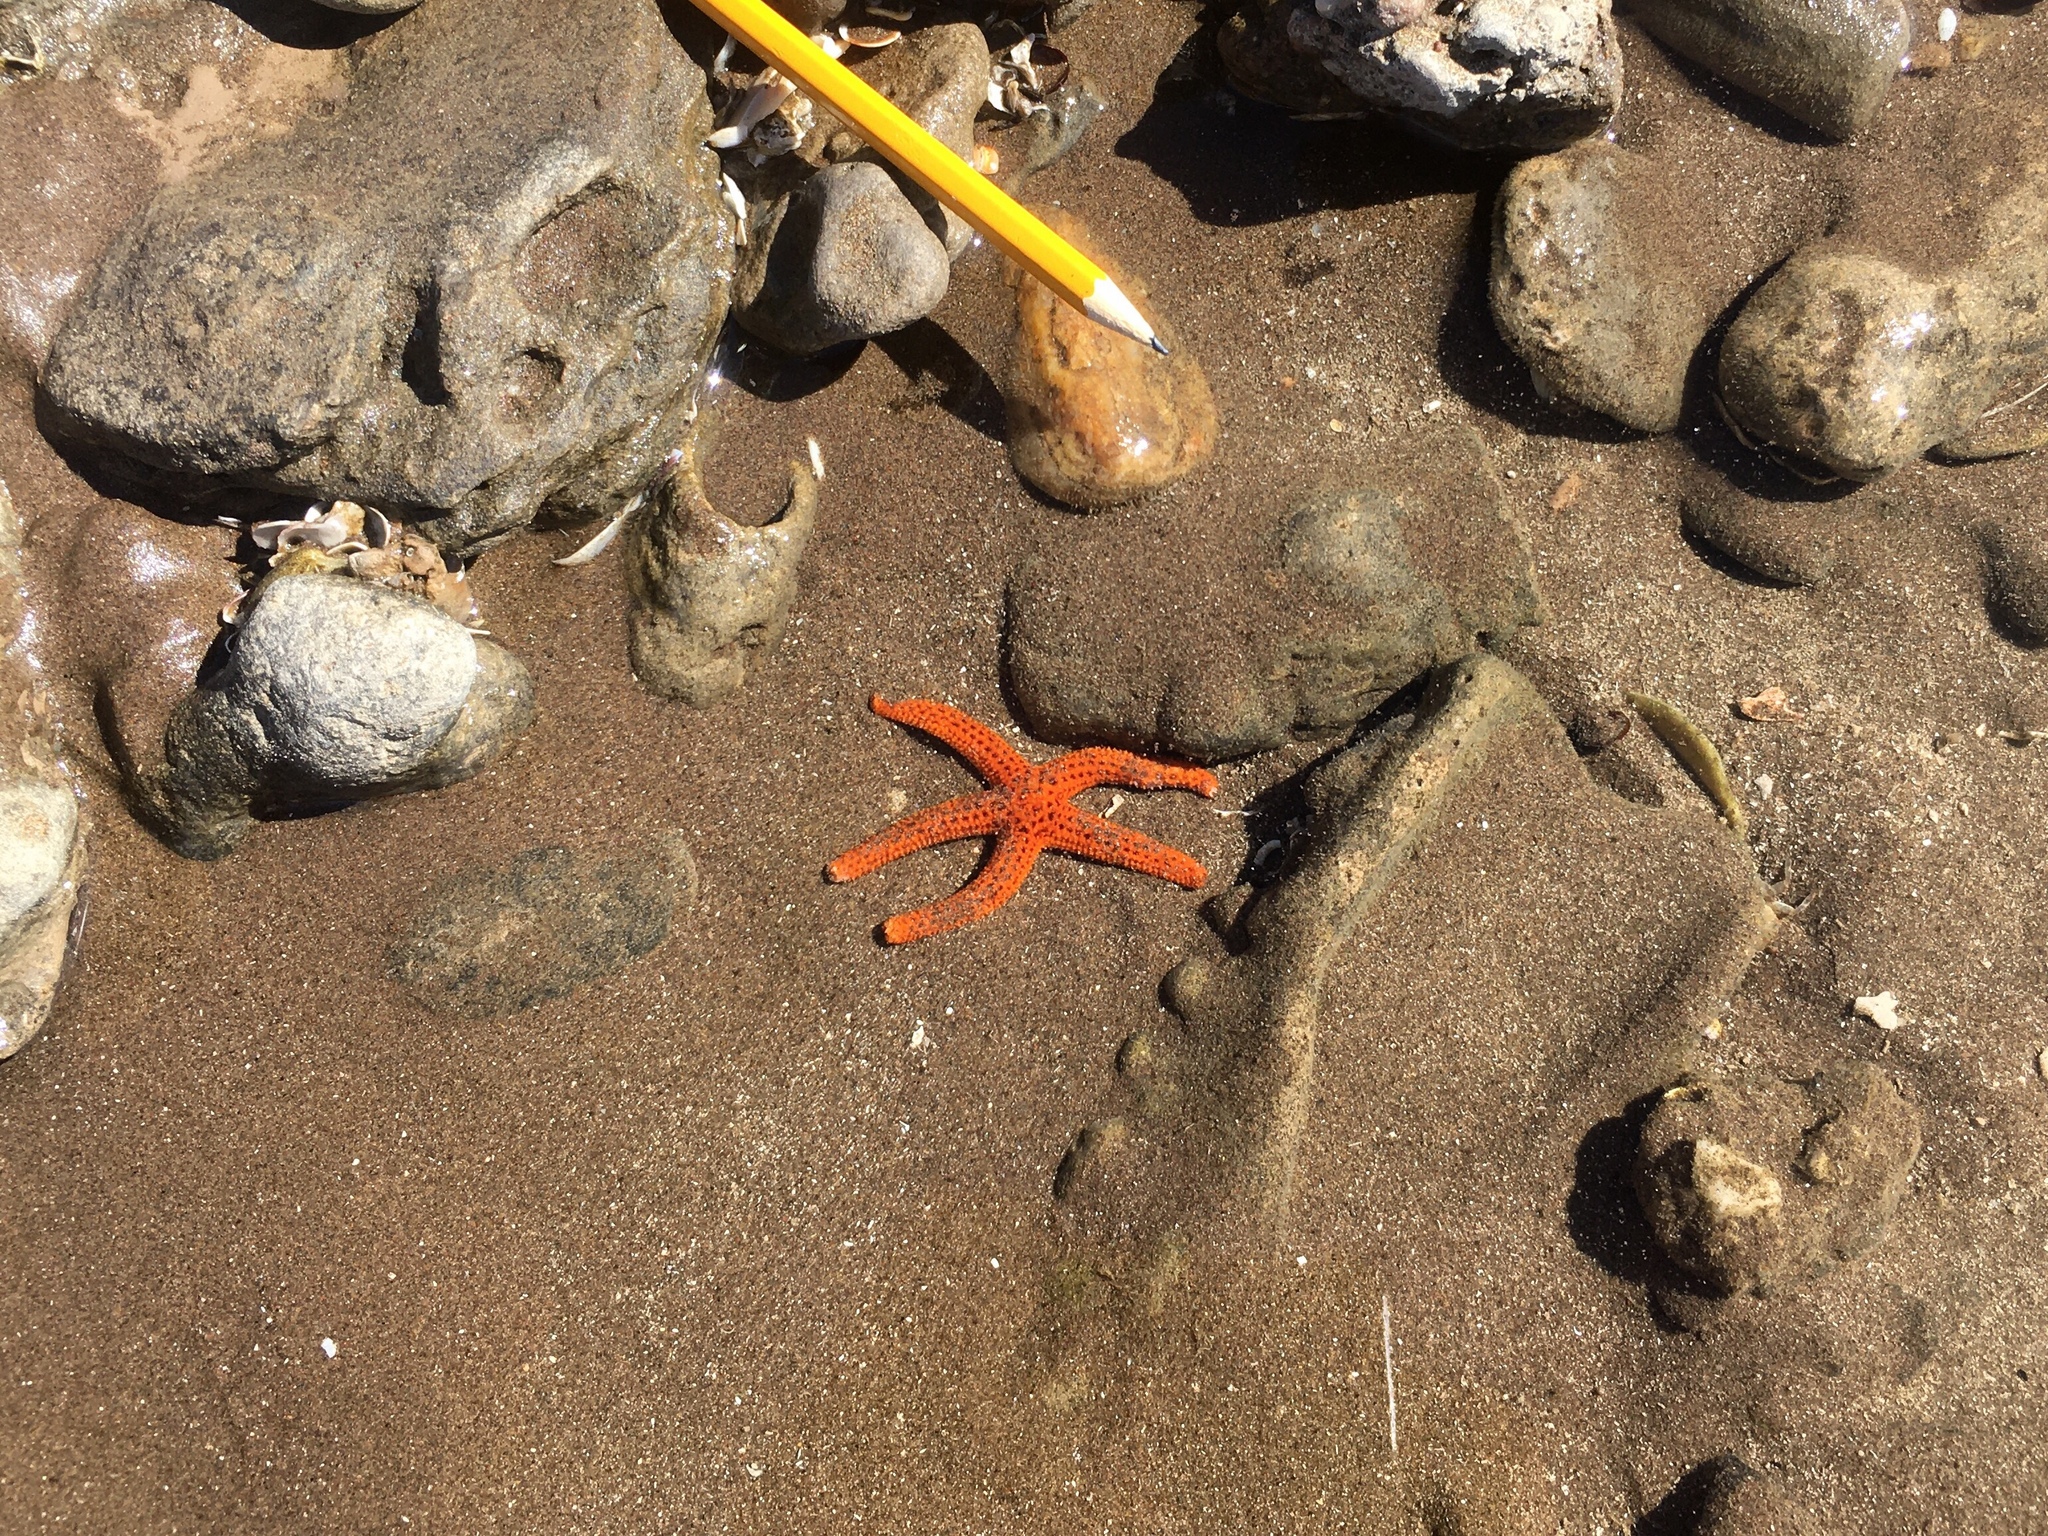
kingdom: Animalia
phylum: Echinodermata
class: Asteroidea
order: Spinulosida
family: Echinasteridae
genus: Echinaster
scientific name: Echinaster brasiliensis
